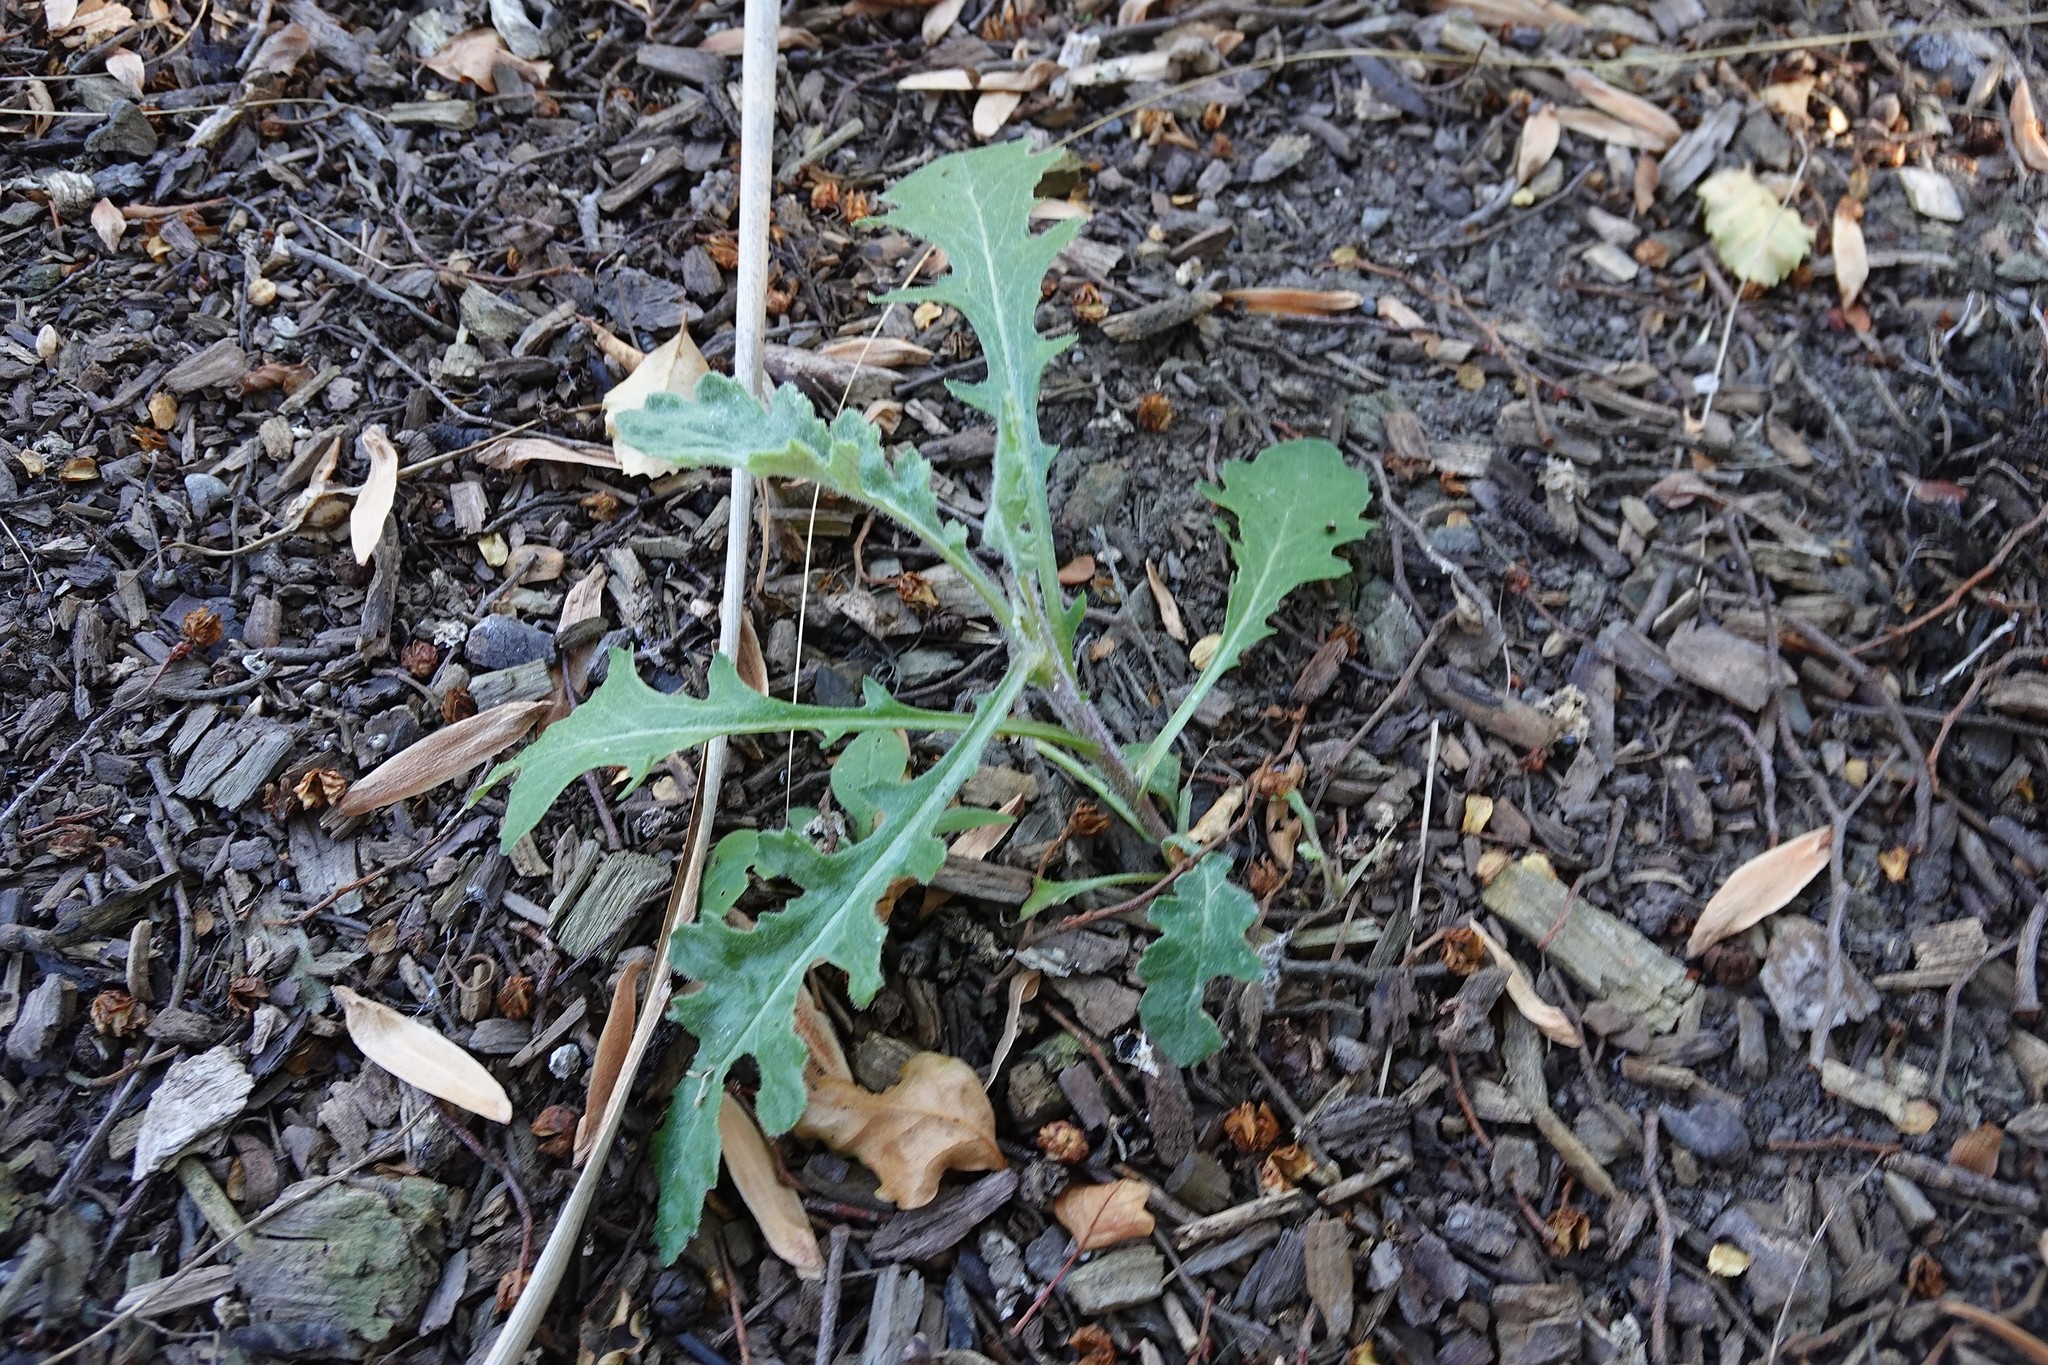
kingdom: Plantae
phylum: Tracheophyta
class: Magnoliopsida
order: Asterales
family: Asteraceae
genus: Senecio
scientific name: Senecio glomeratus
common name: Cutleaf burnweed
